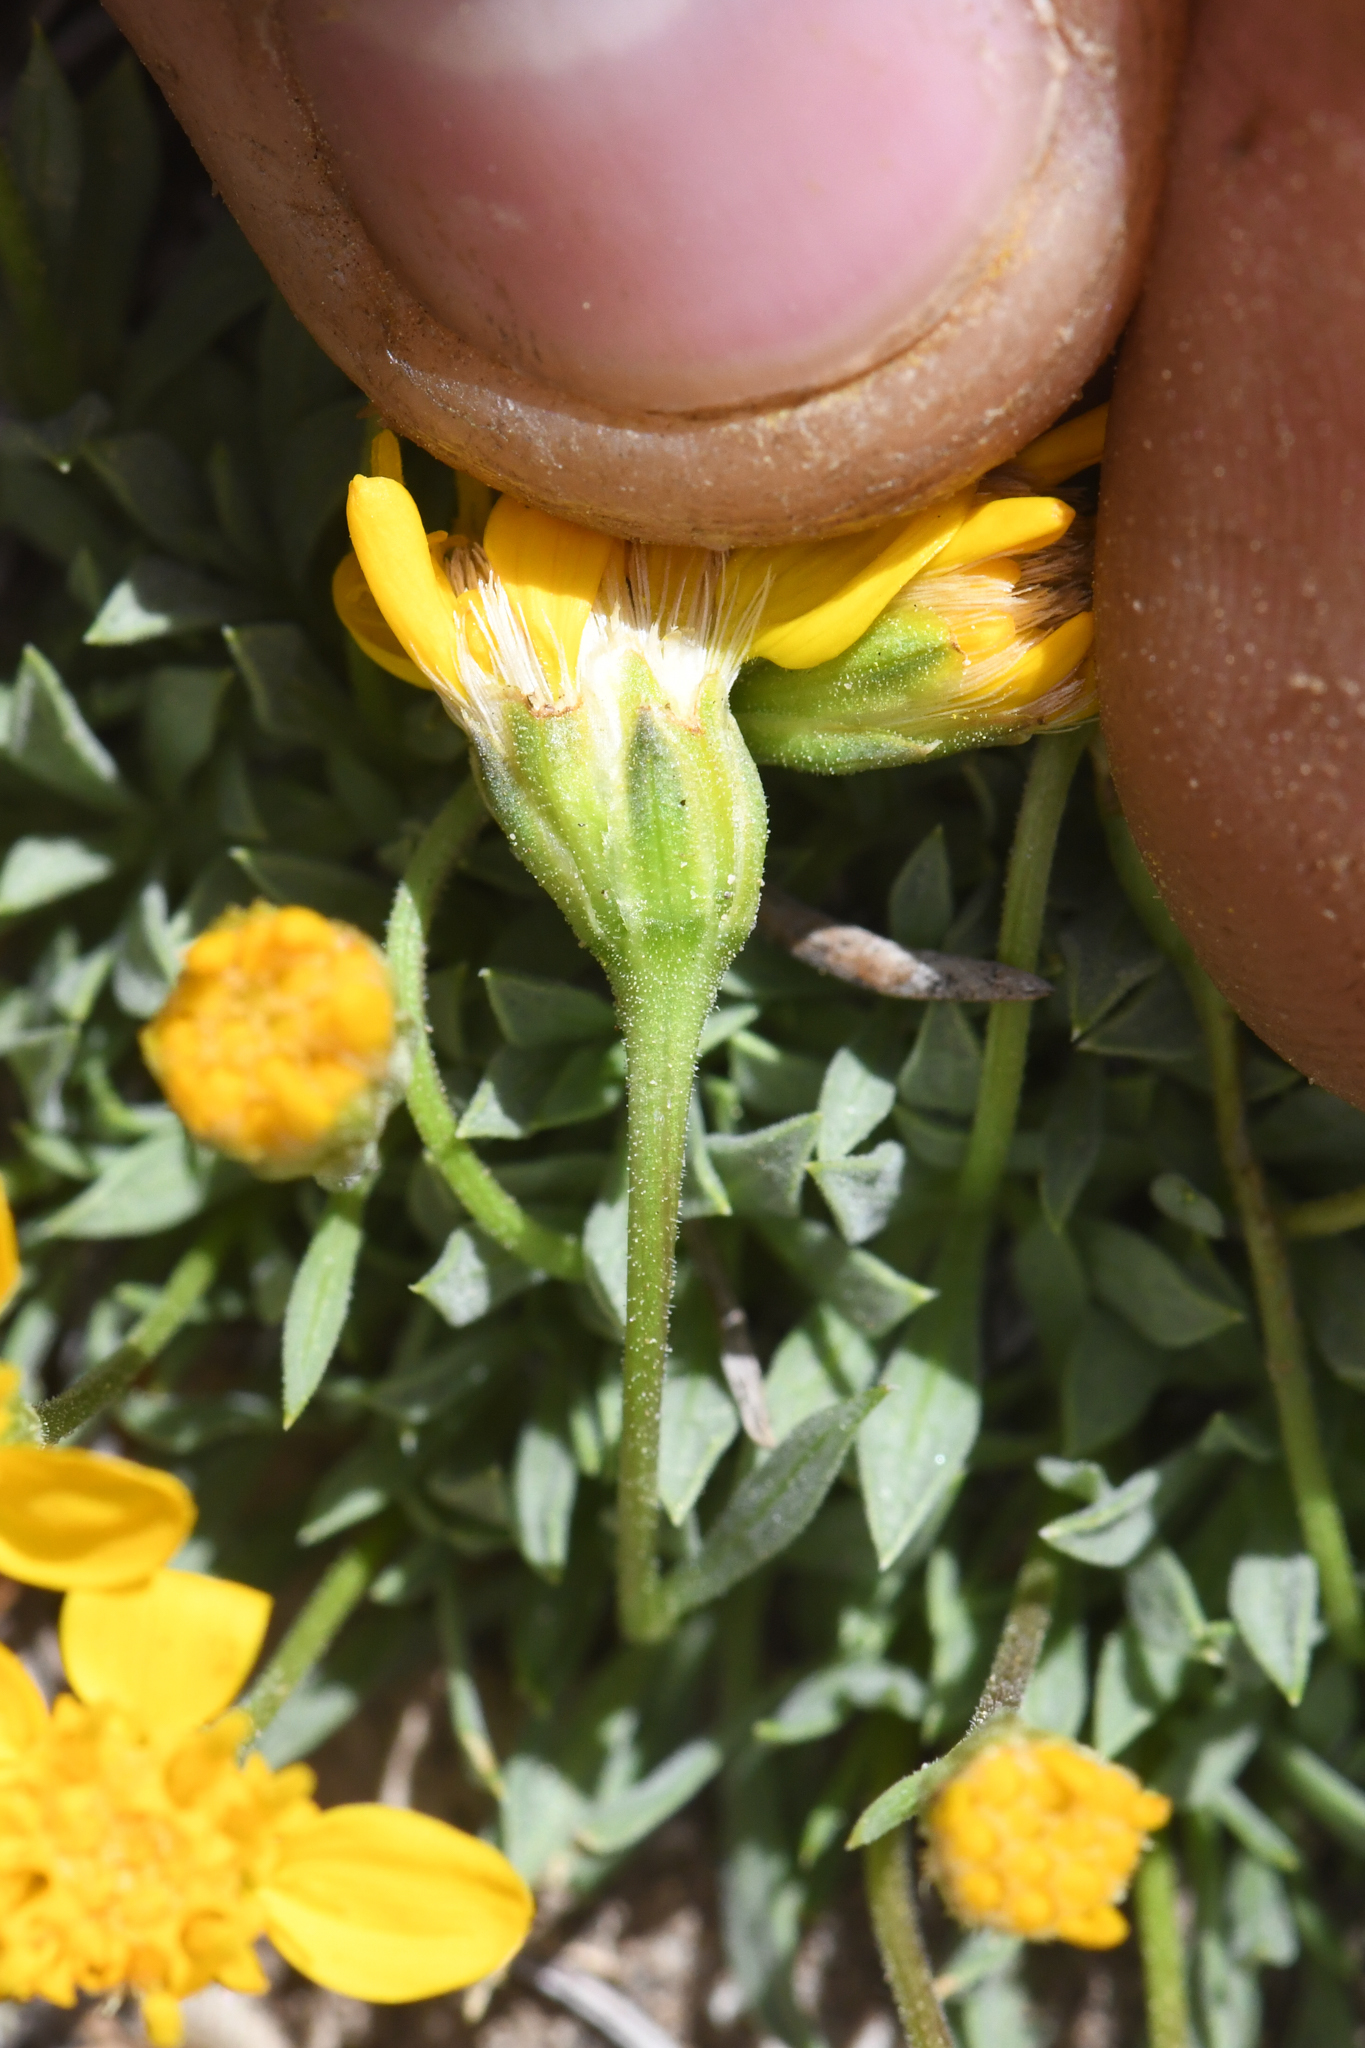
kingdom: Plantae
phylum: Tracheophyta
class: Magnoliopsida
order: Asterales
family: Asteraceae
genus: Stenotus
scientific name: Stenotus acaulis
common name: Stemless goldenweed
